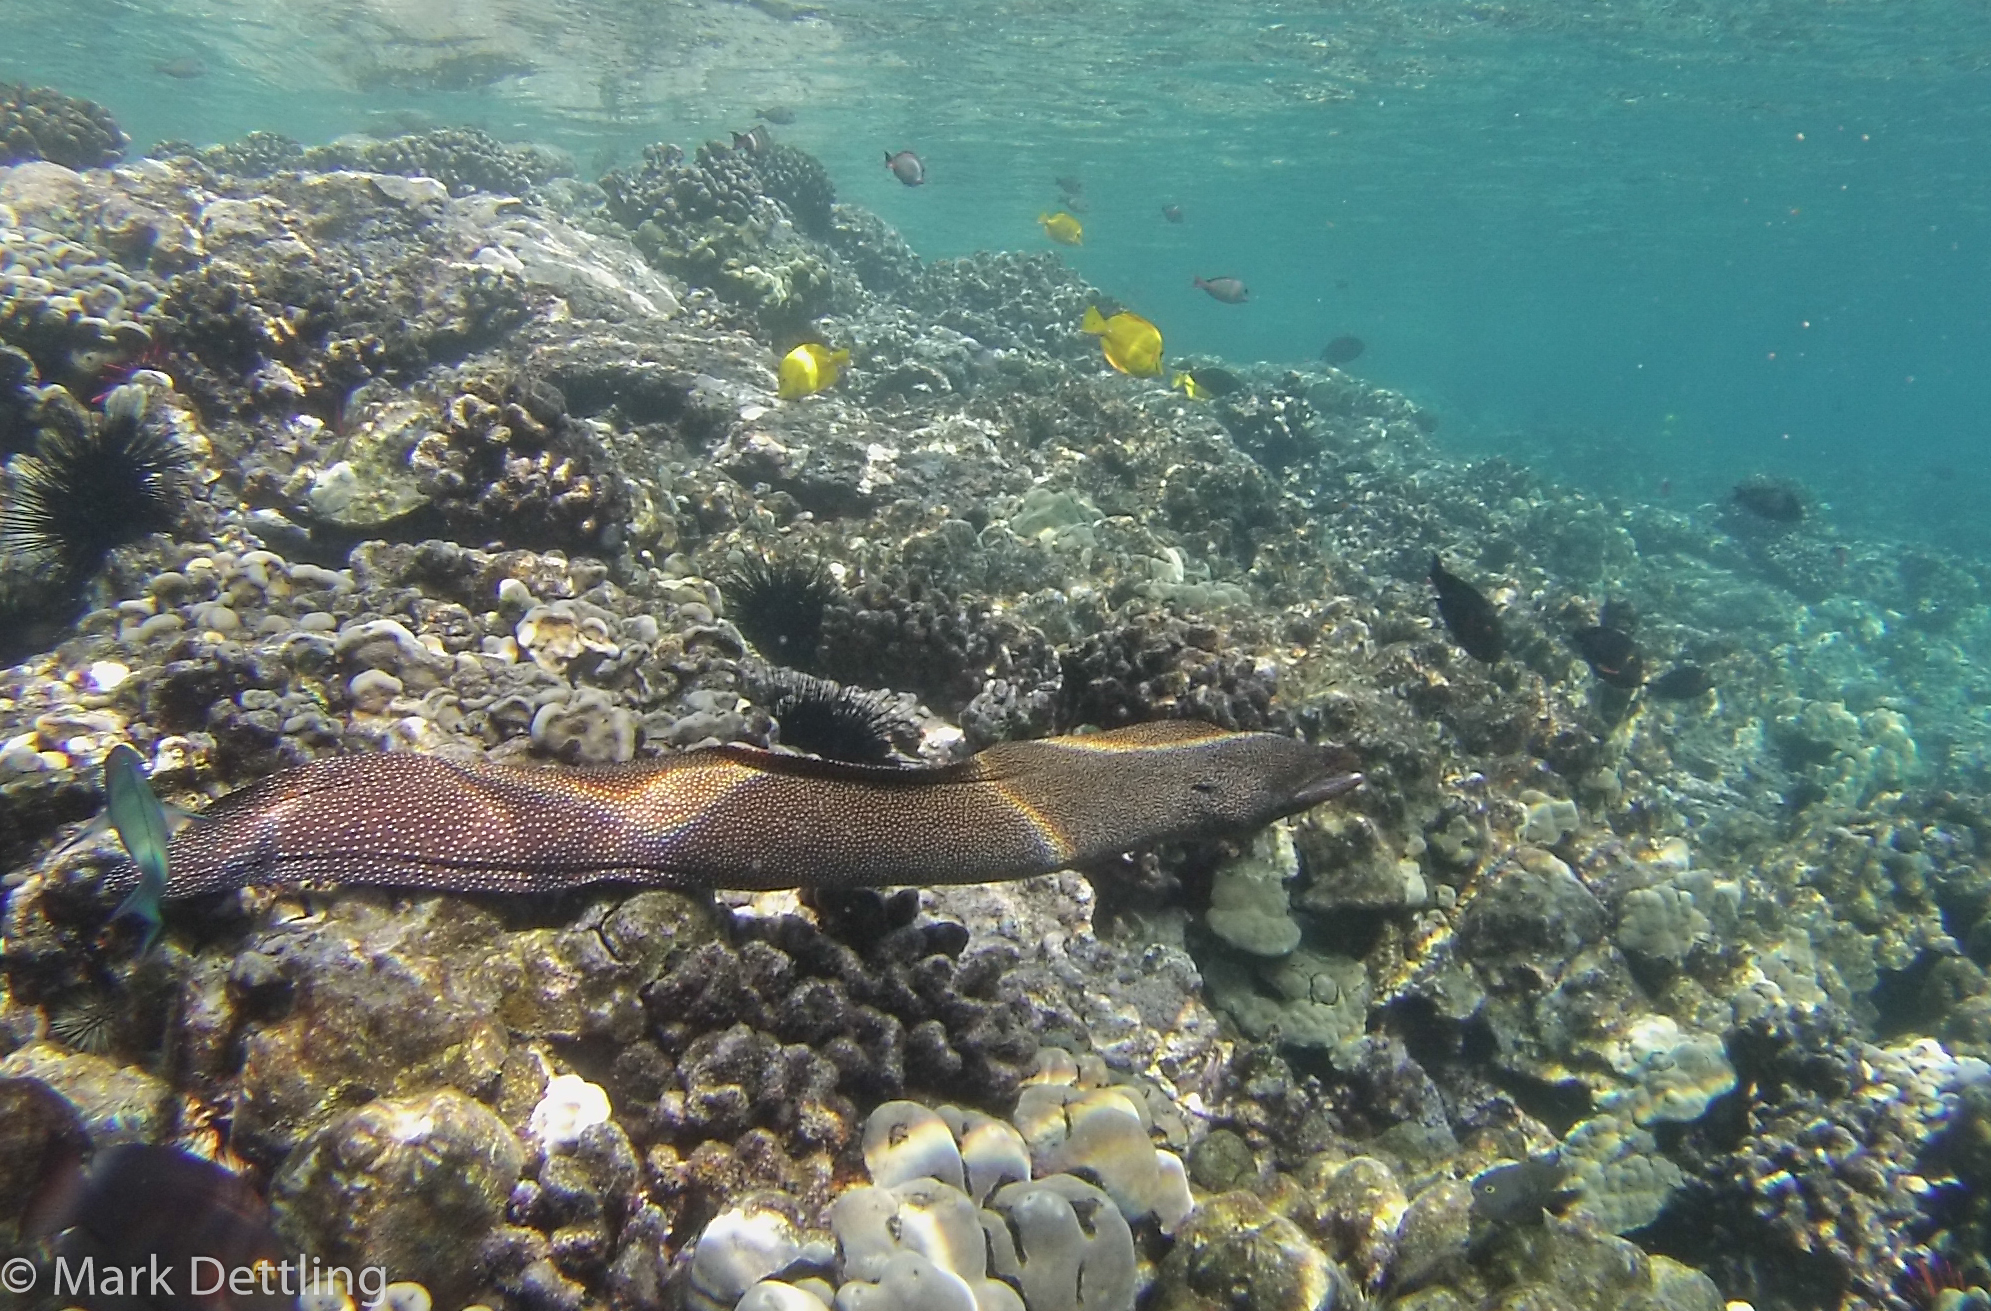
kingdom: Animalia
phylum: Chordata
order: Anguilliformes
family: Muraenidae
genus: Gymnothorax
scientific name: Gymnothorax meleagris
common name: Guineafowl moray
